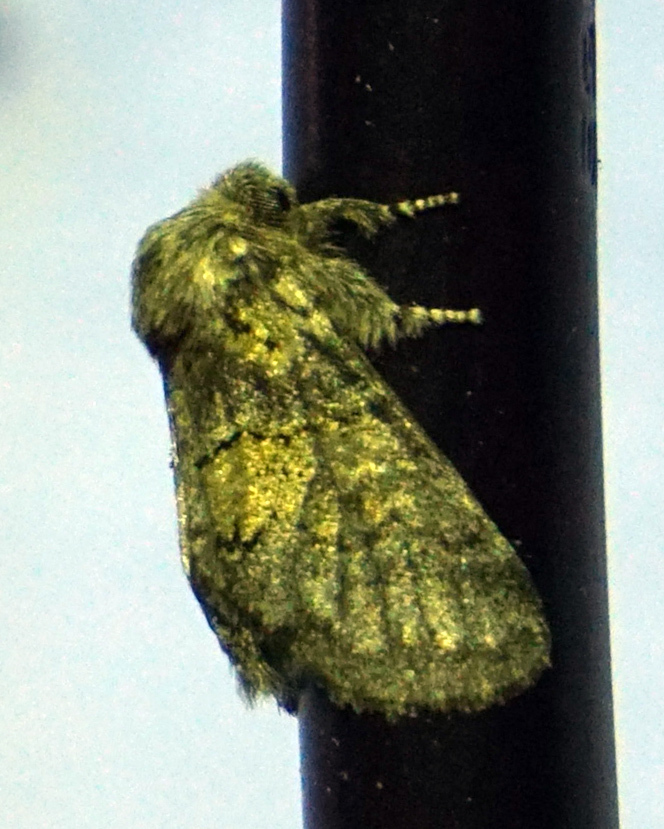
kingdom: Animalia
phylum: Arthropoda
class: Insecta
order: Lepidoptera
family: Notodontidae
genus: Gluphisia
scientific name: Gluphisia septentrionis
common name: Common gluphisia
